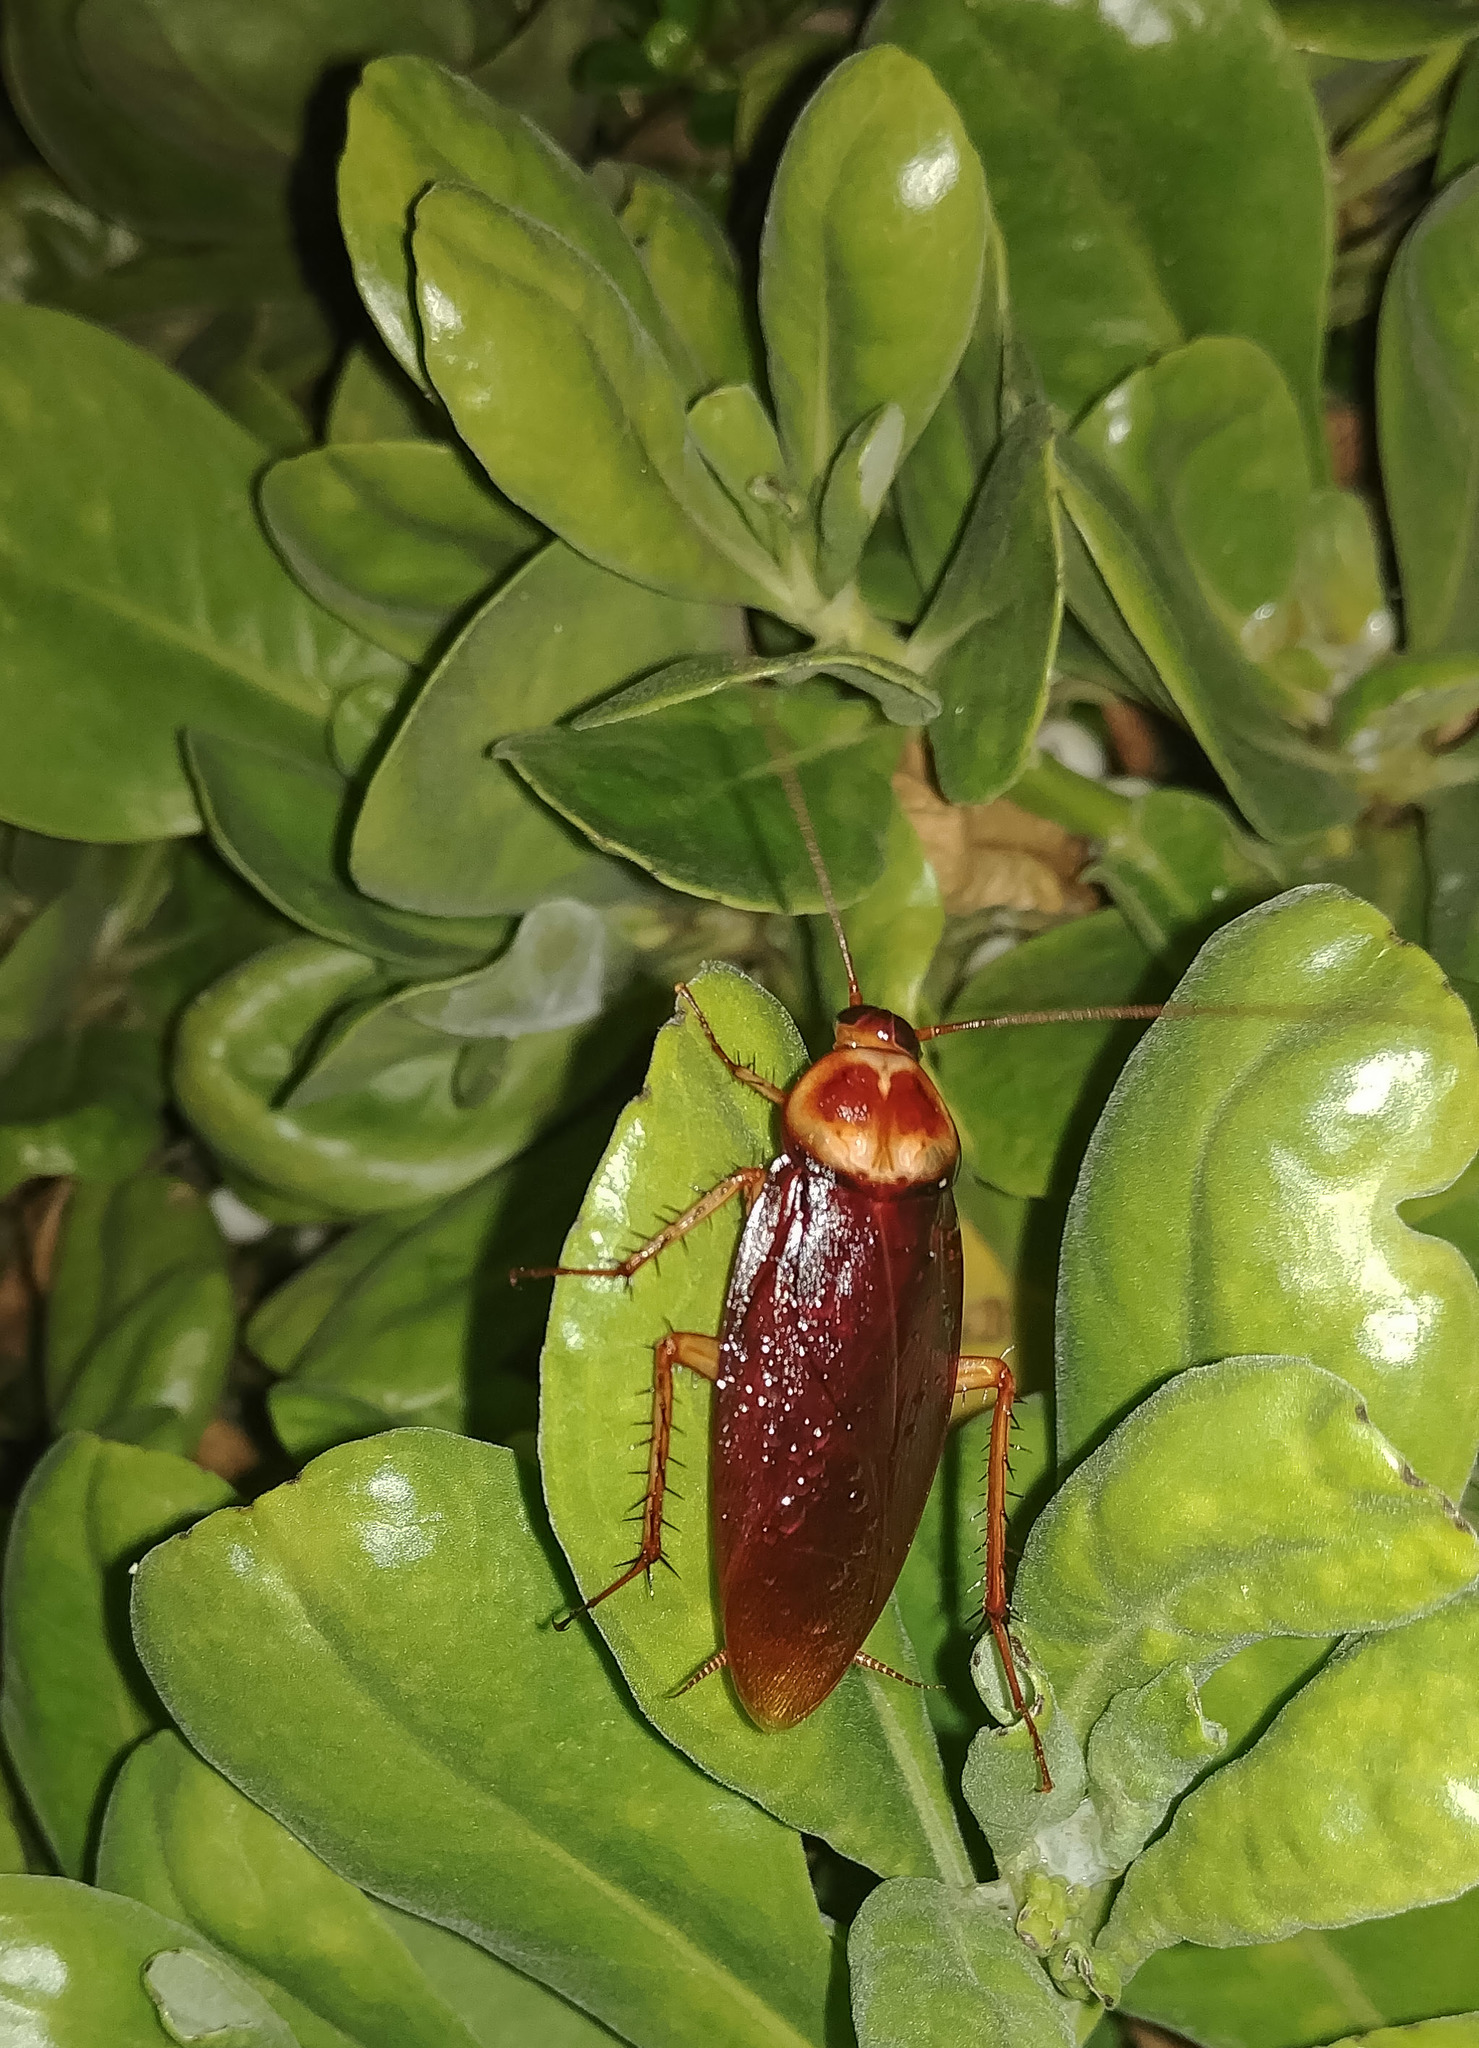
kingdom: Animalia
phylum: Arthropoda
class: Insecta
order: Blattodea
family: Blattidae
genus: Periplaneta
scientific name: Periplaneta americana
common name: American cockroach
